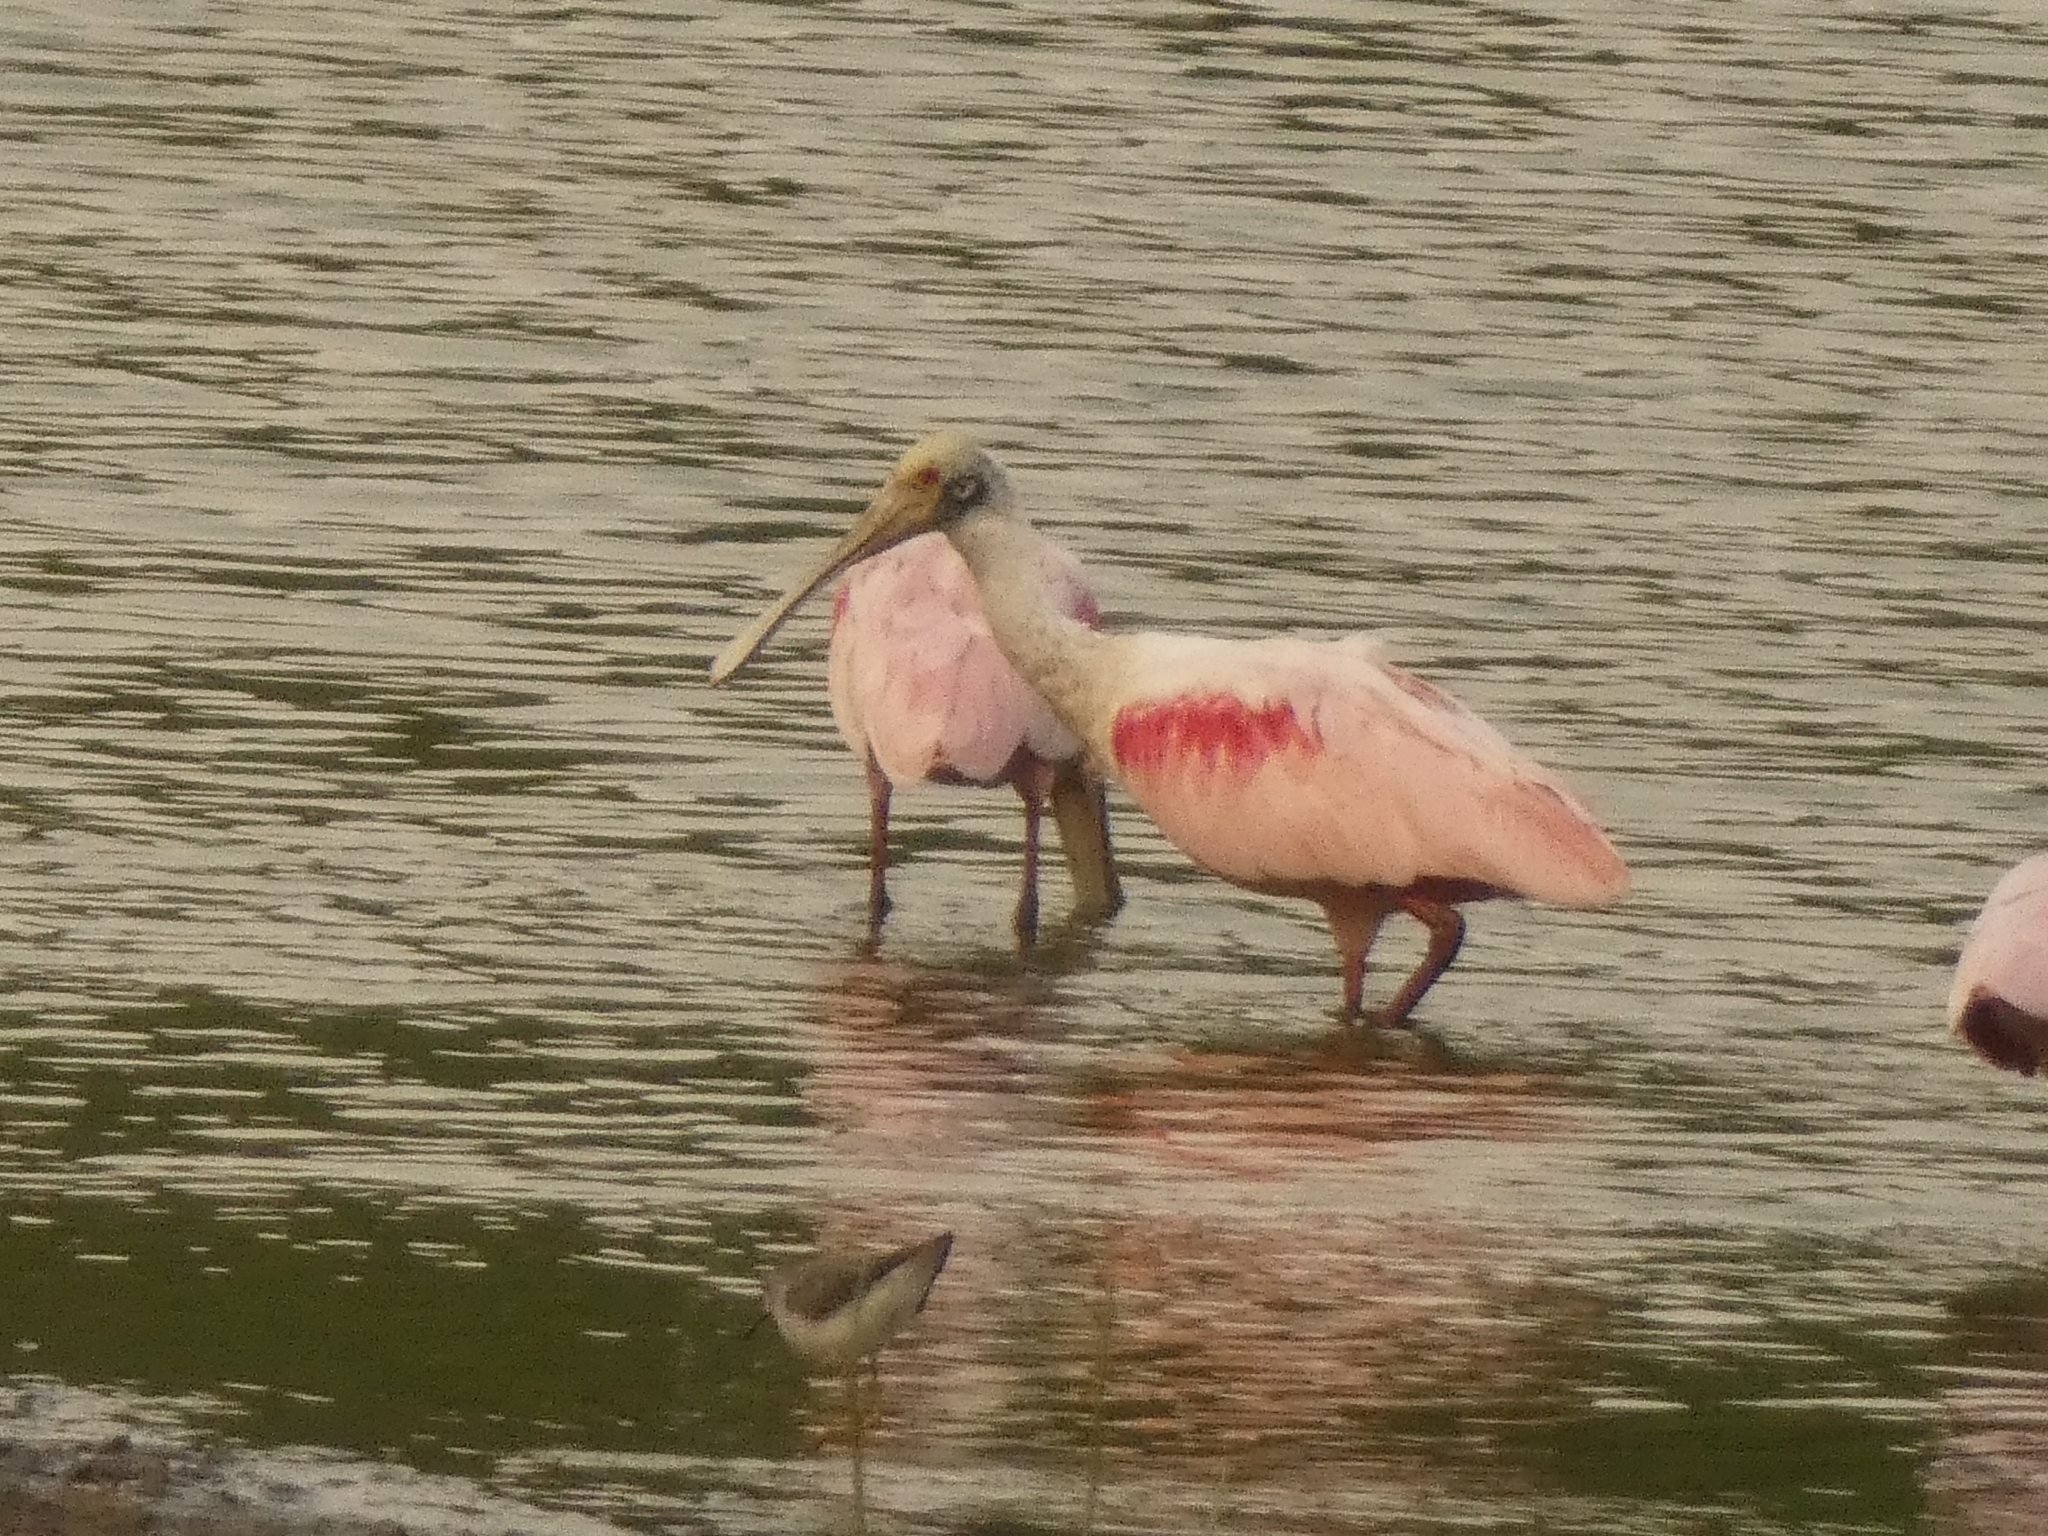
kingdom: Animalia
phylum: Chordata
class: Aves
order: Pelecaniformes
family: Threskiornithidae
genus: Platalea
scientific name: Platalea ajaja
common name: Roseate spoonbill
